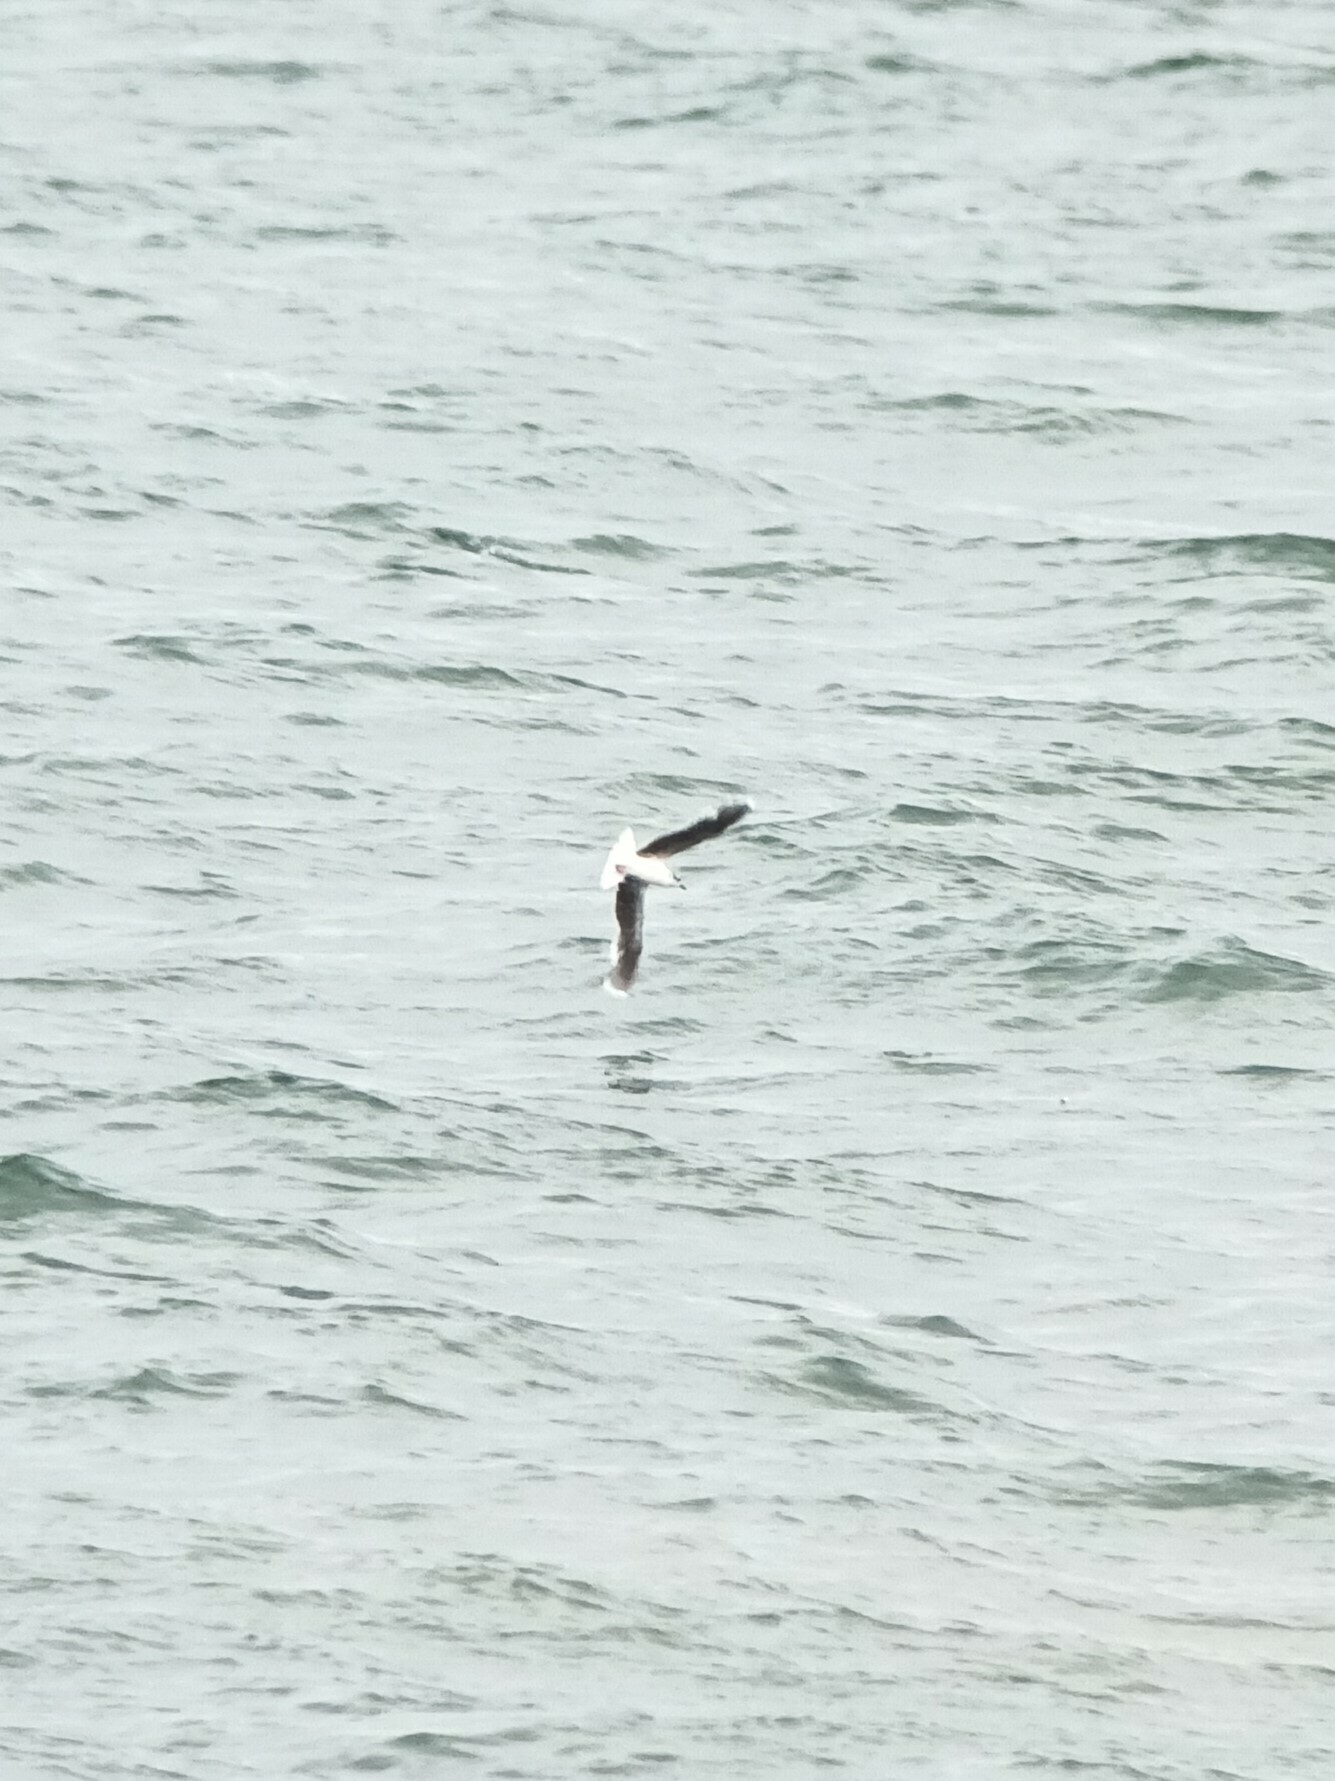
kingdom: Animalia
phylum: Chordata
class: Aves
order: Charadriiformes
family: Laridae
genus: Hydrocoloeus
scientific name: Hydrocoloeus minutus
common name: Little gull
